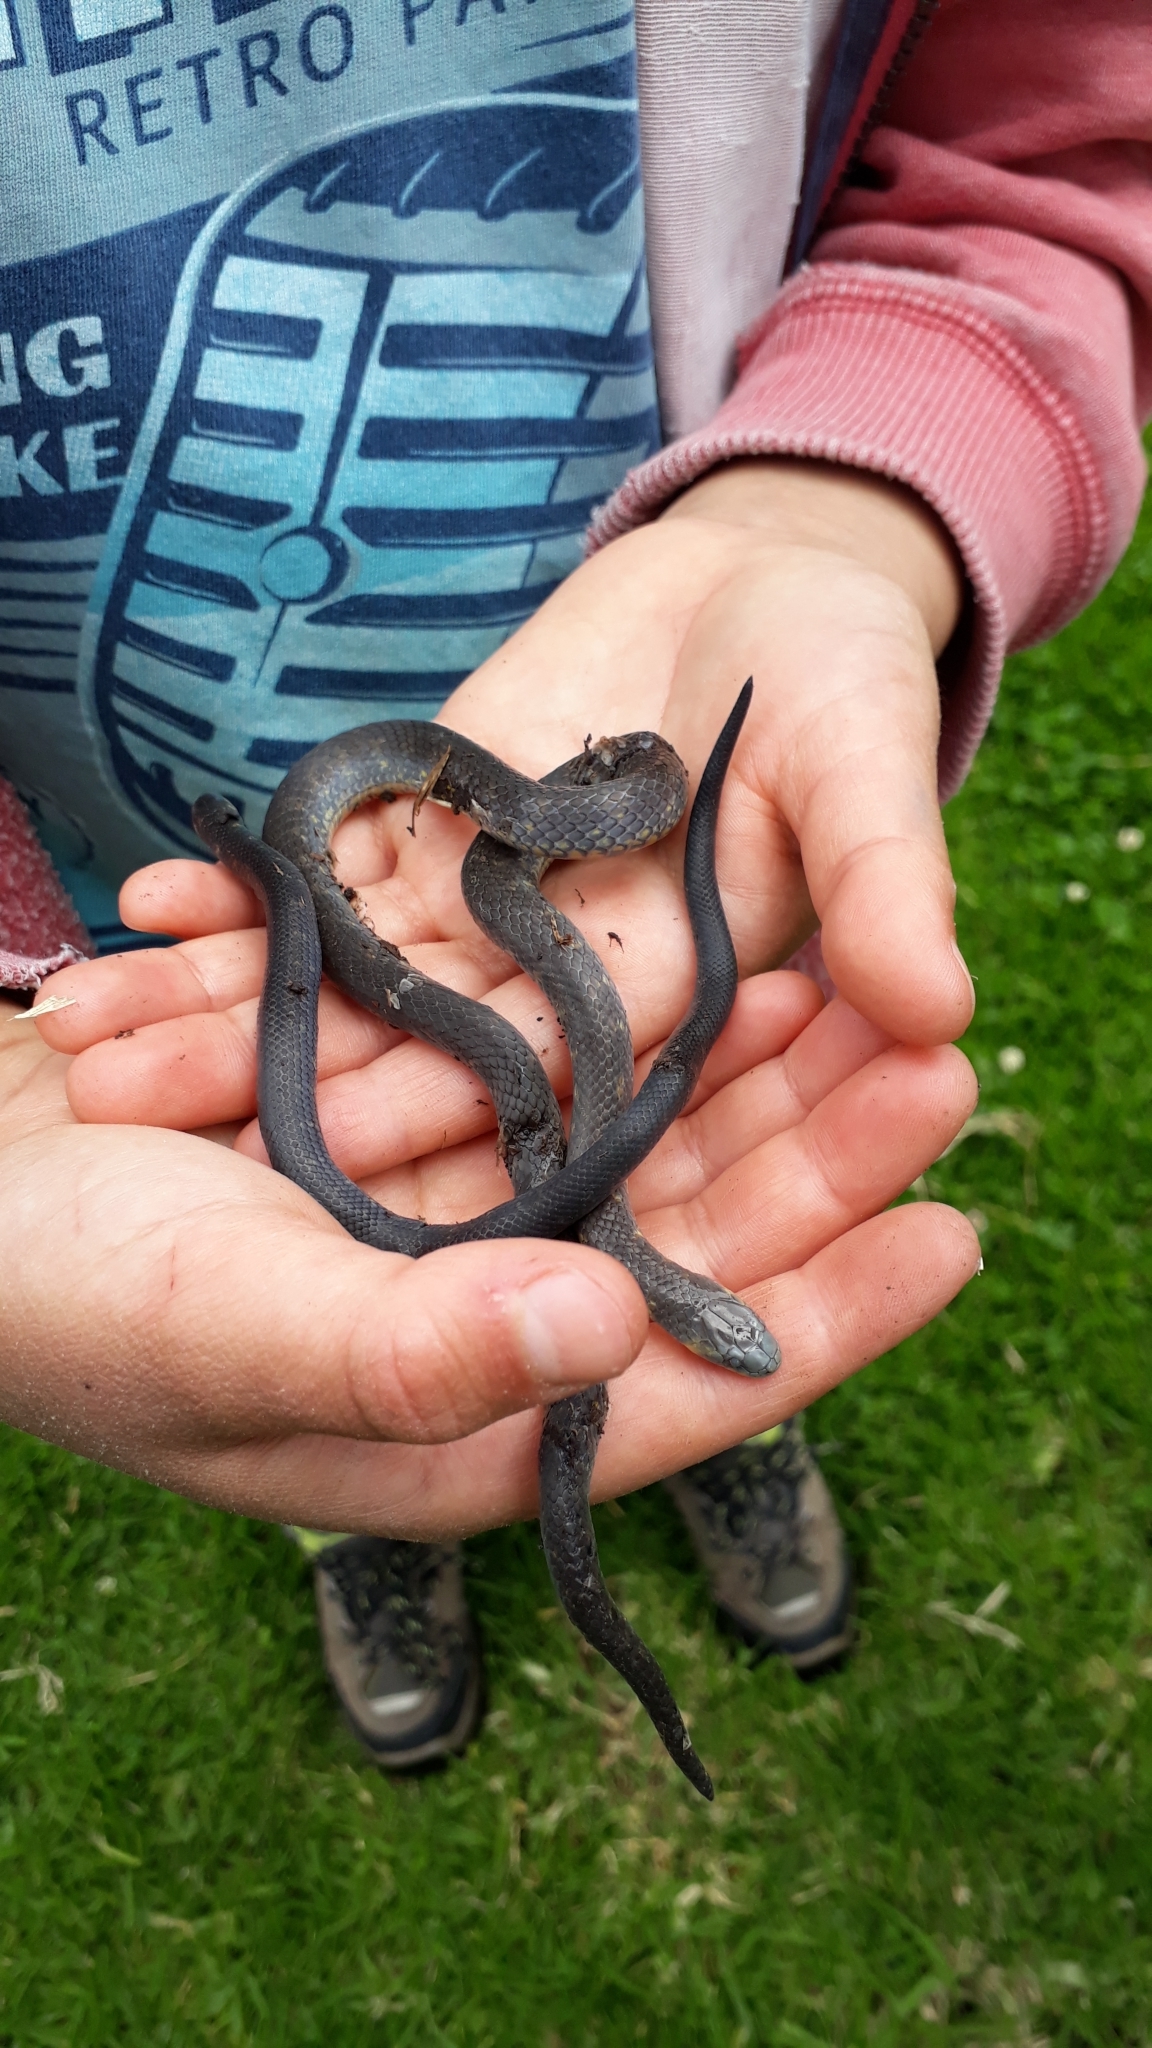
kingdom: Animalia
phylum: Chordata
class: Squamata
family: Colubridae
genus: Atractus
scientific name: Atractus crassicaudatus
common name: Thickhead ground snake
